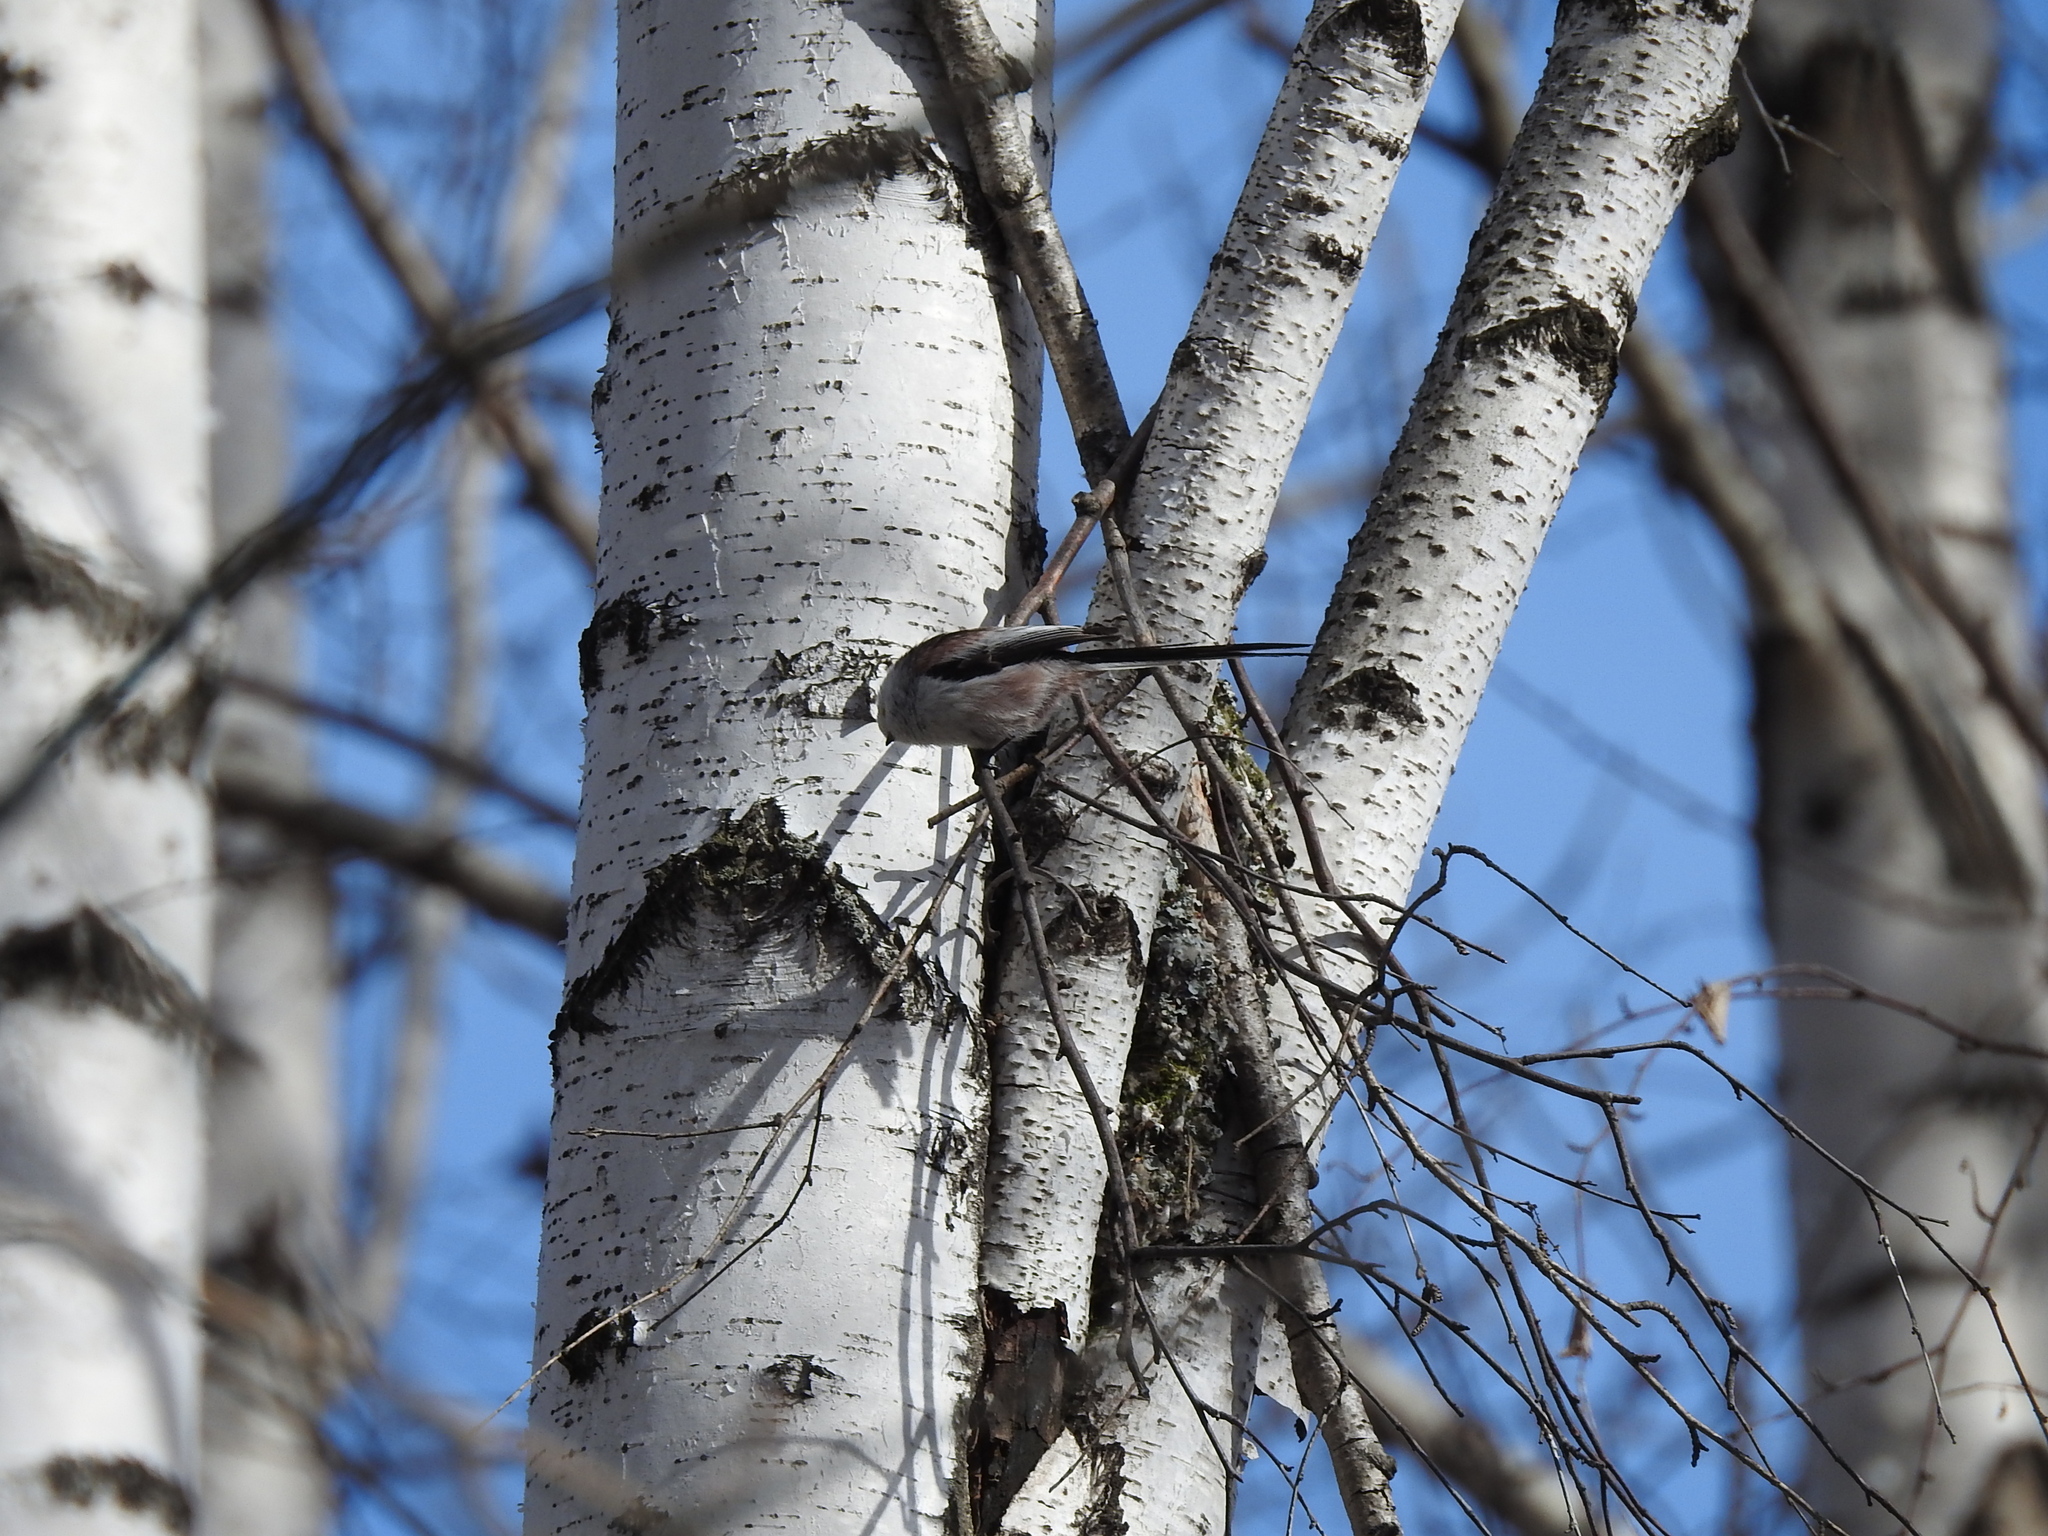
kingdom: Animalia
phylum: Chordata
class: Aves
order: Passeriformes
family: Aegithalidae
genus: Aegithalos
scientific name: Aegithalos caudatus
